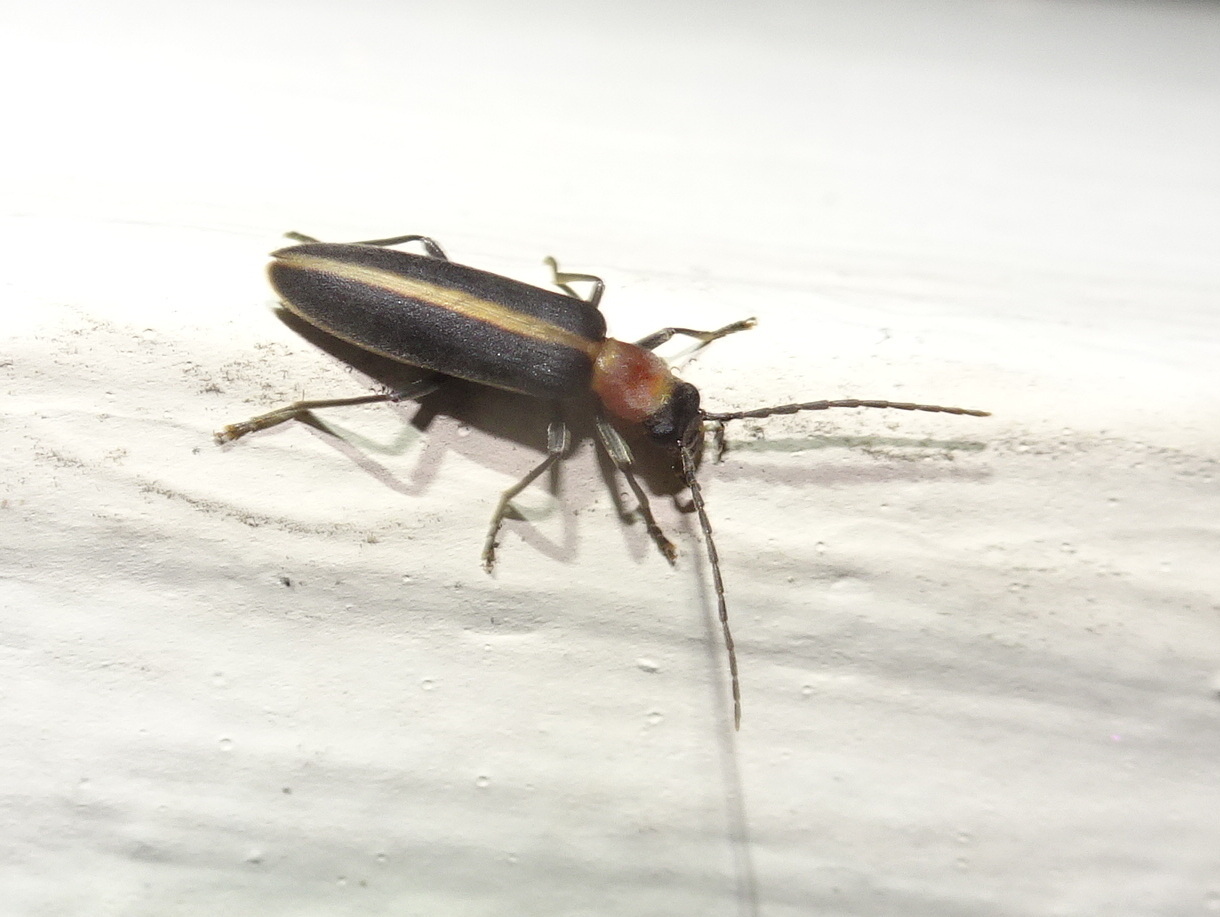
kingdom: Animalia
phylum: Arthropoda
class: Insecta
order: Coleoptera
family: Oedemeridae
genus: Oxycopis
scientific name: Oxycopis mimetica
